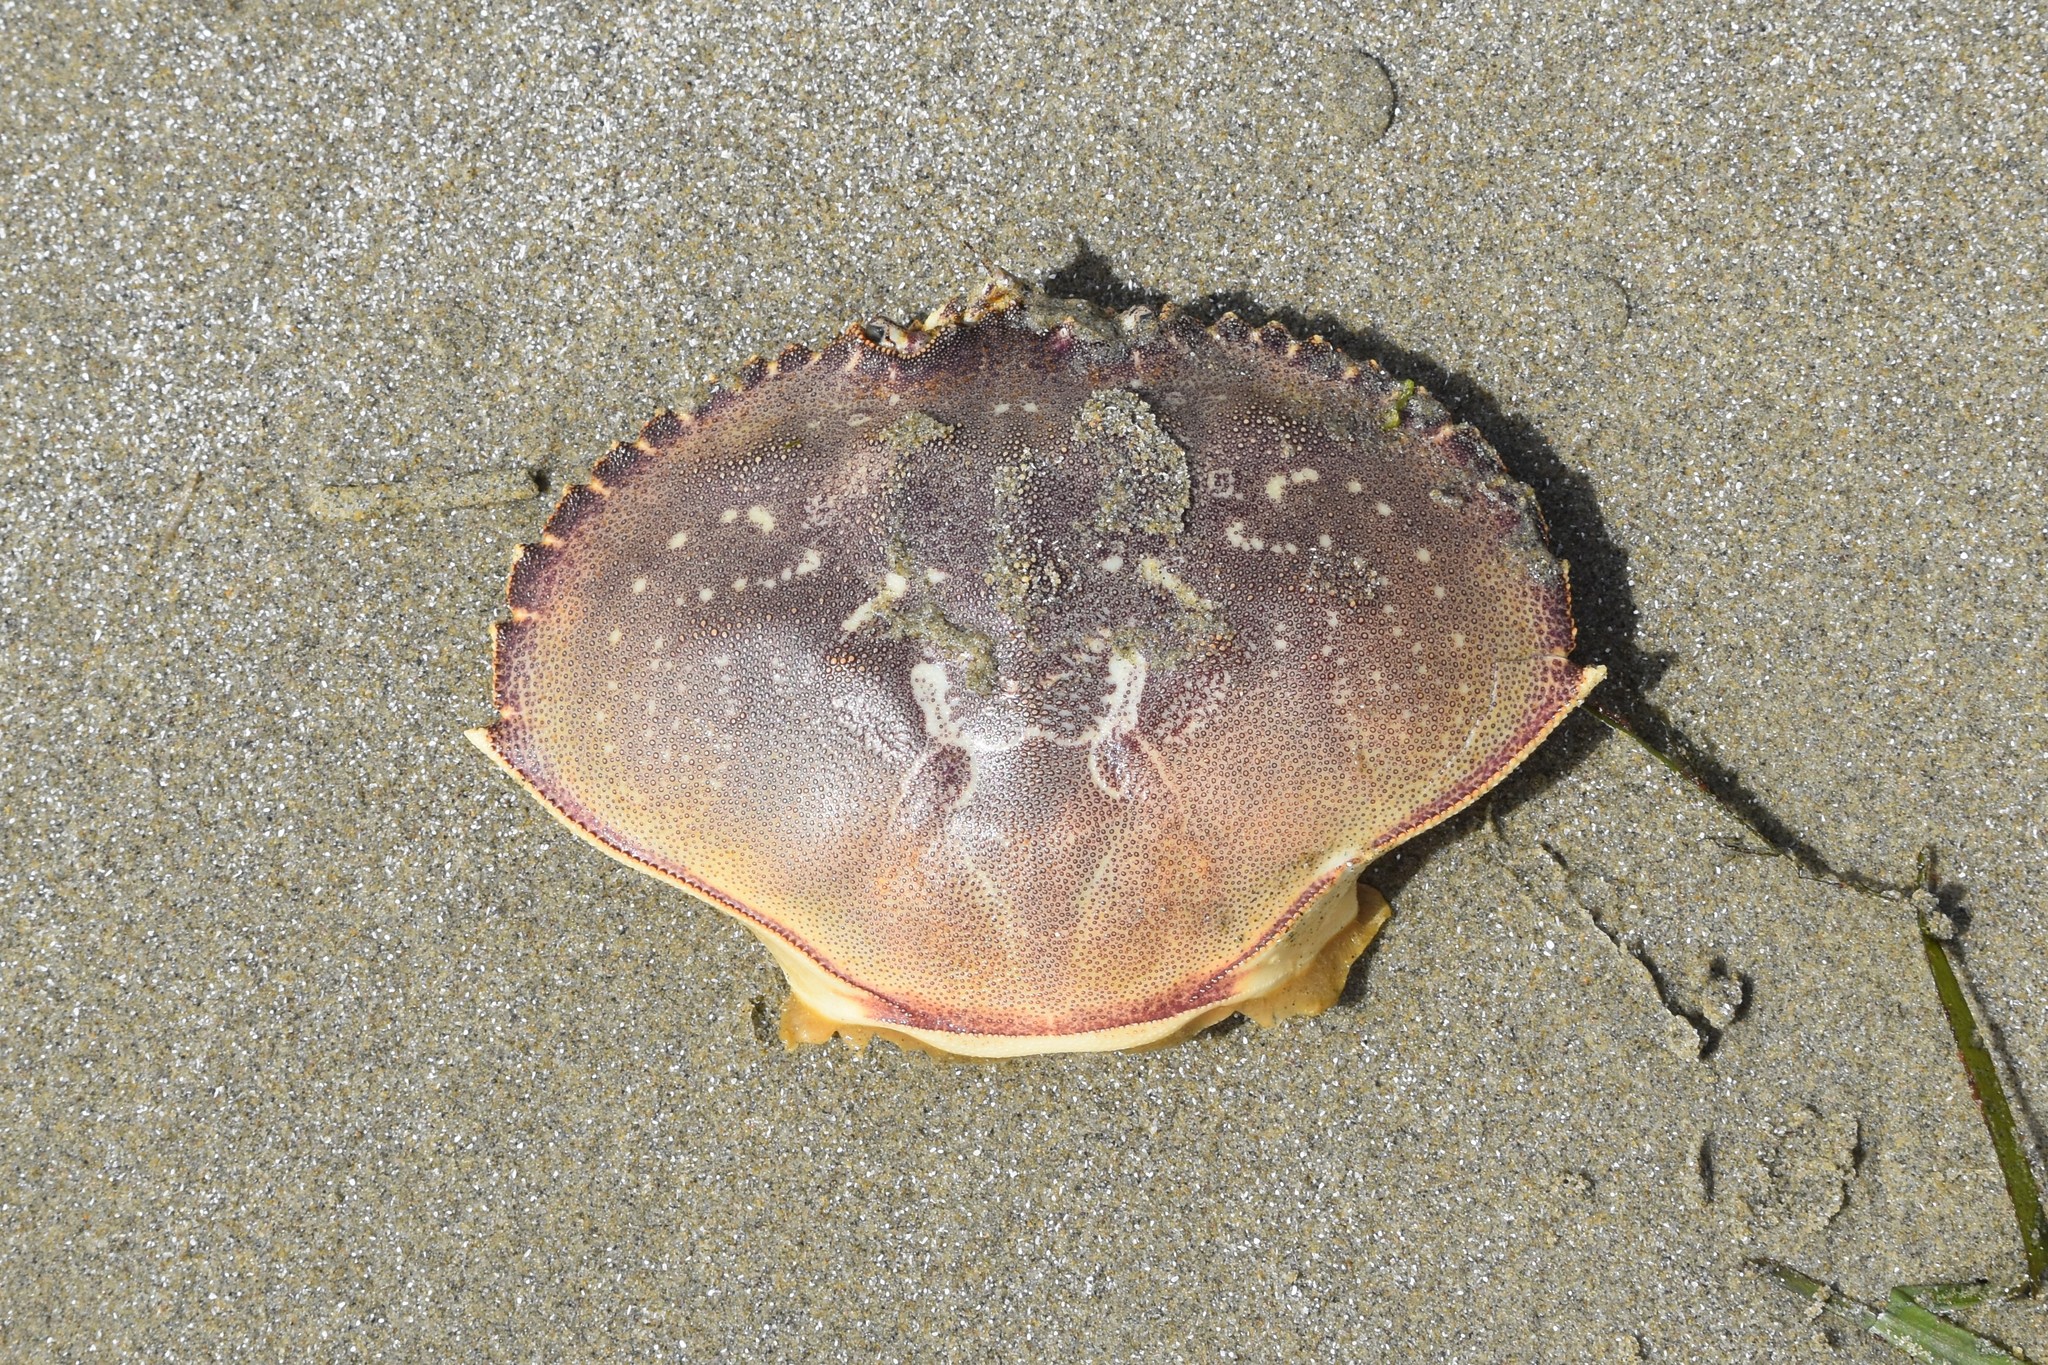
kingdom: Animalia
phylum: Arthropoda
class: Malacostraca
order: Decapoda
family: Cancridae
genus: Metacarcinus
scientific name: Metacarcinus magister
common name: Californian crab
